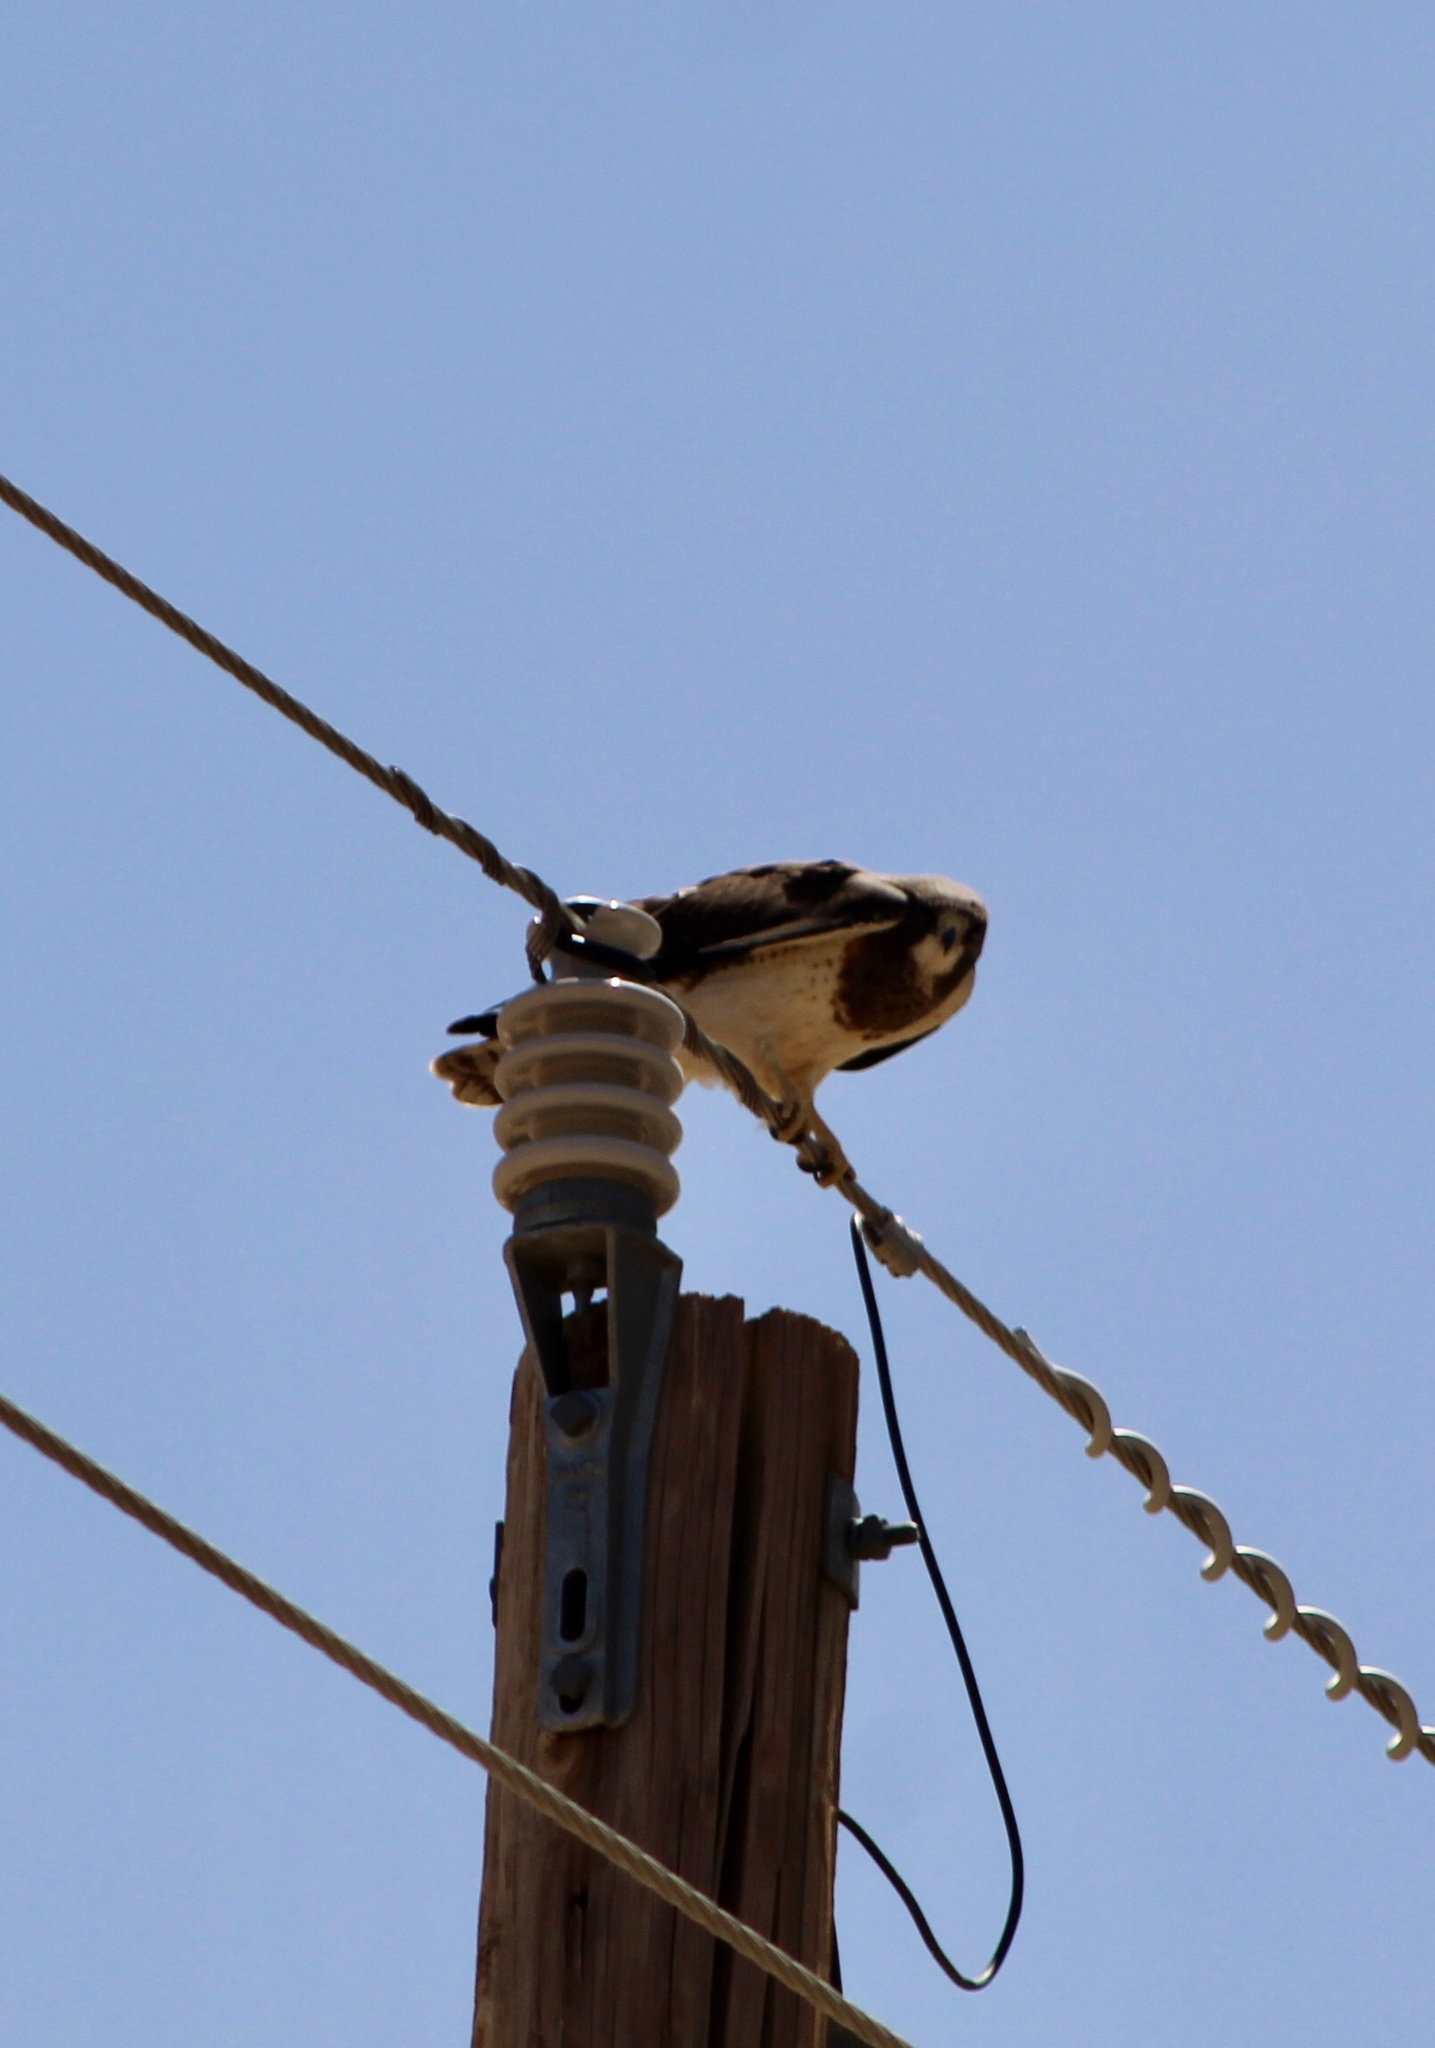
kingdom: Animalia
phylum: Chordata
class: Aves
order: Accipitriformes
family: Accipitridae
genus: Buteo
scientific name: Buteo swainsoni
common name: Swainson's hawk
